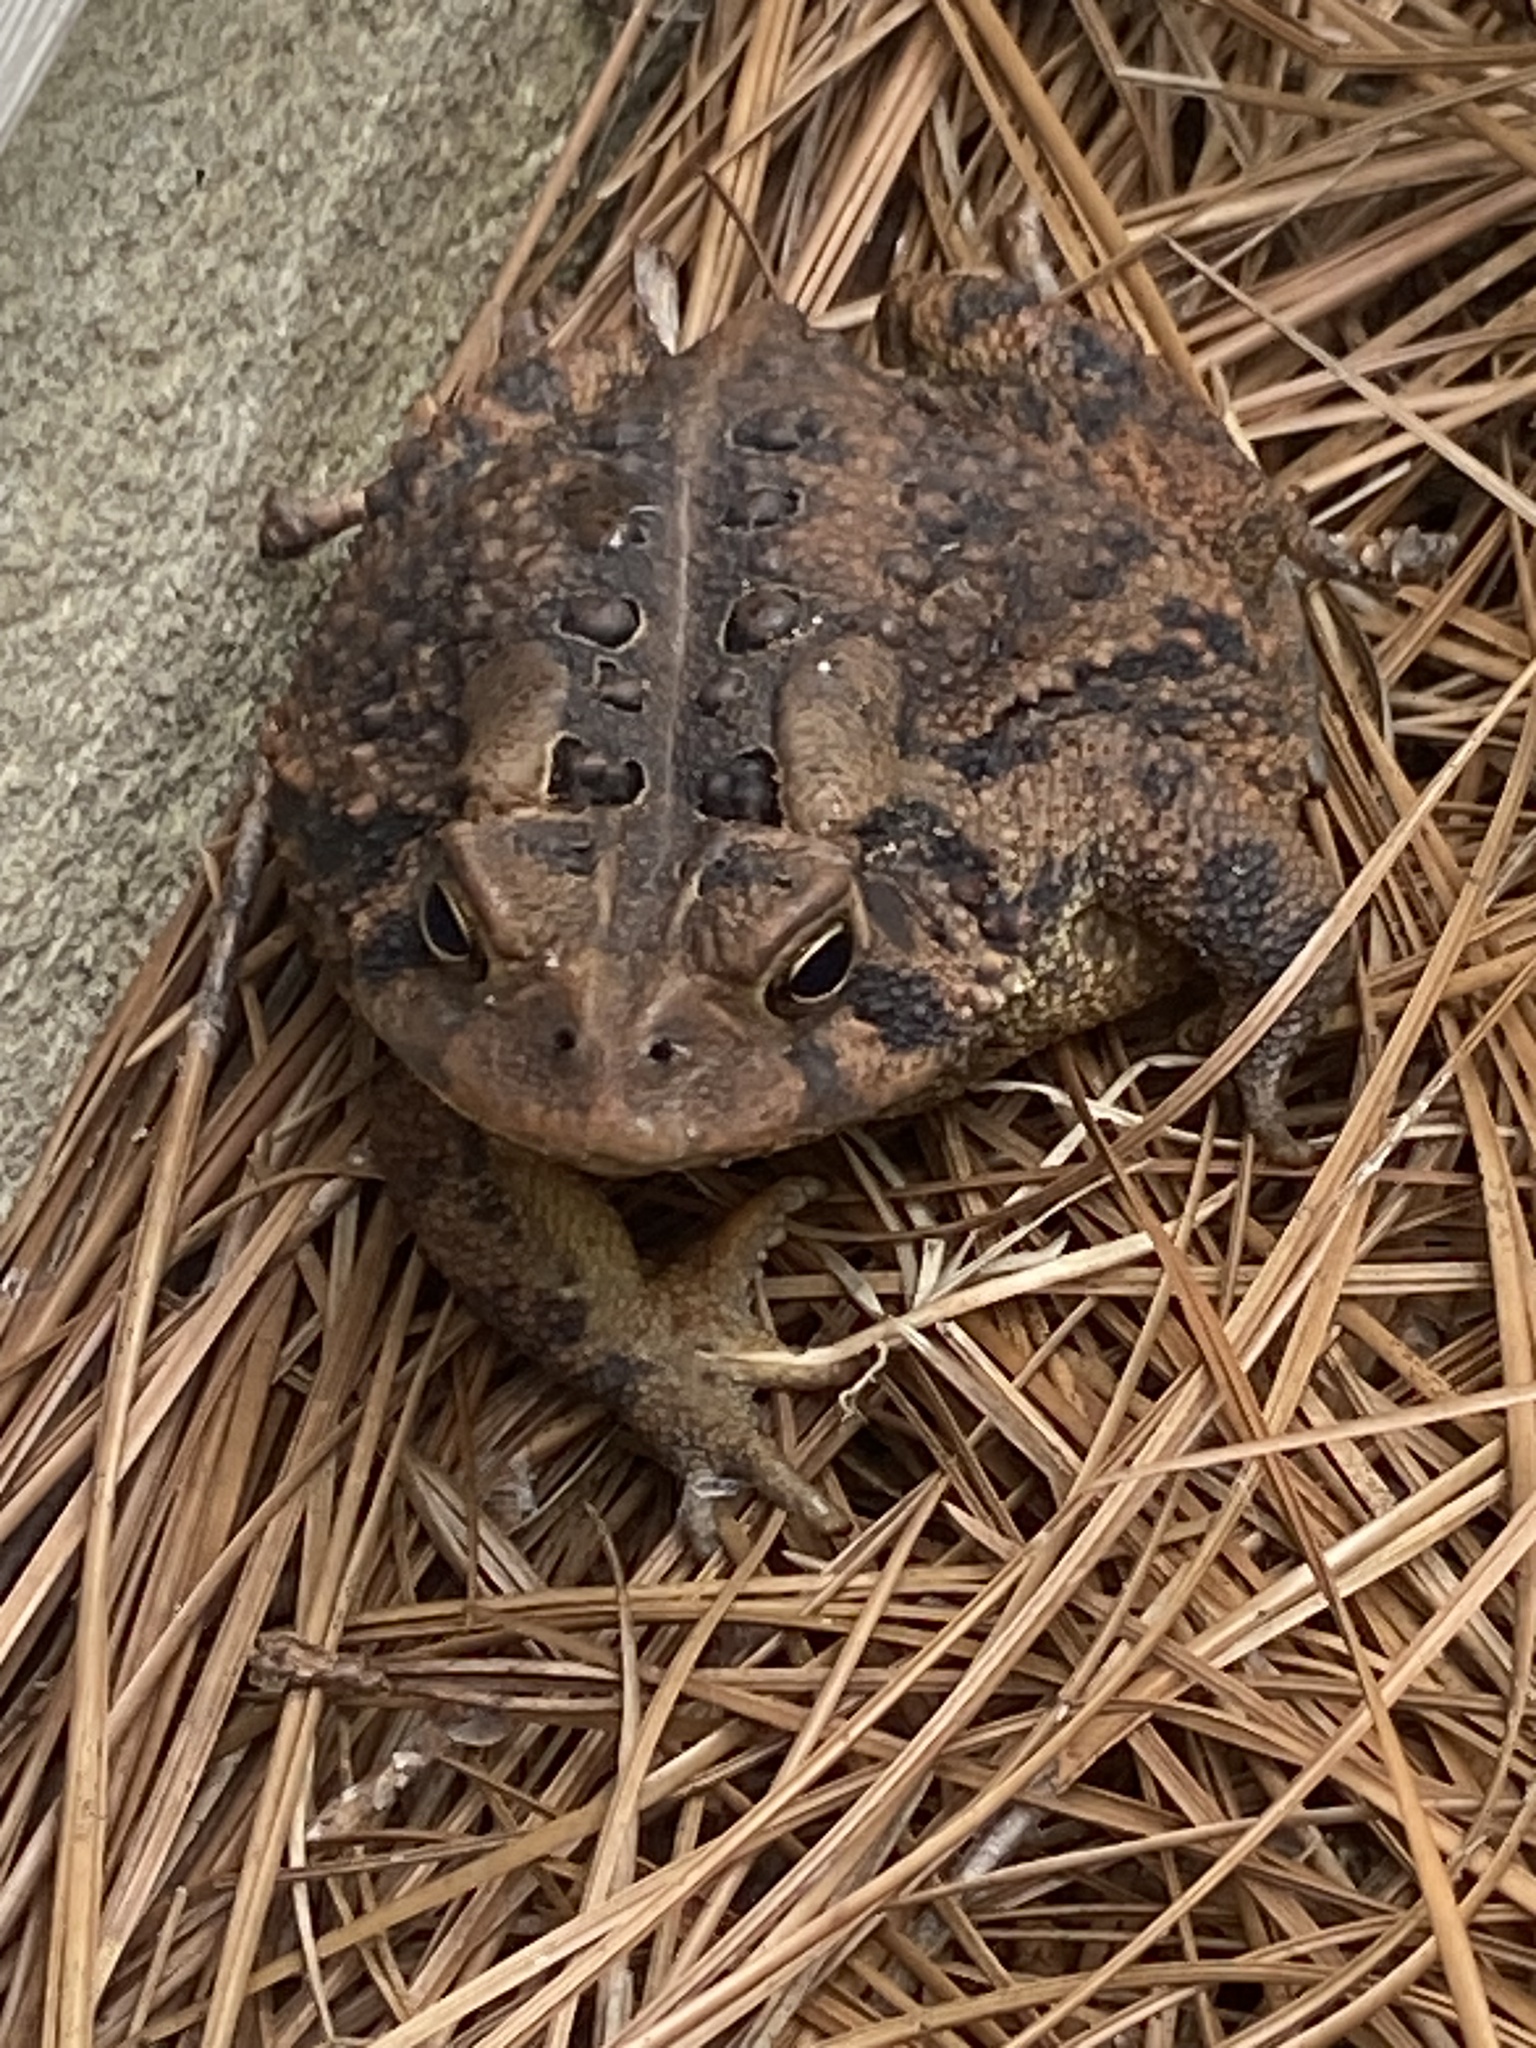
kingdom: Animalia
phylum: Chordata
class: Amphibia
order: Anura
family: Bufonidae
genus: Anaxyrus
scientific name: Anaxyrus americanus
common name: American toad
